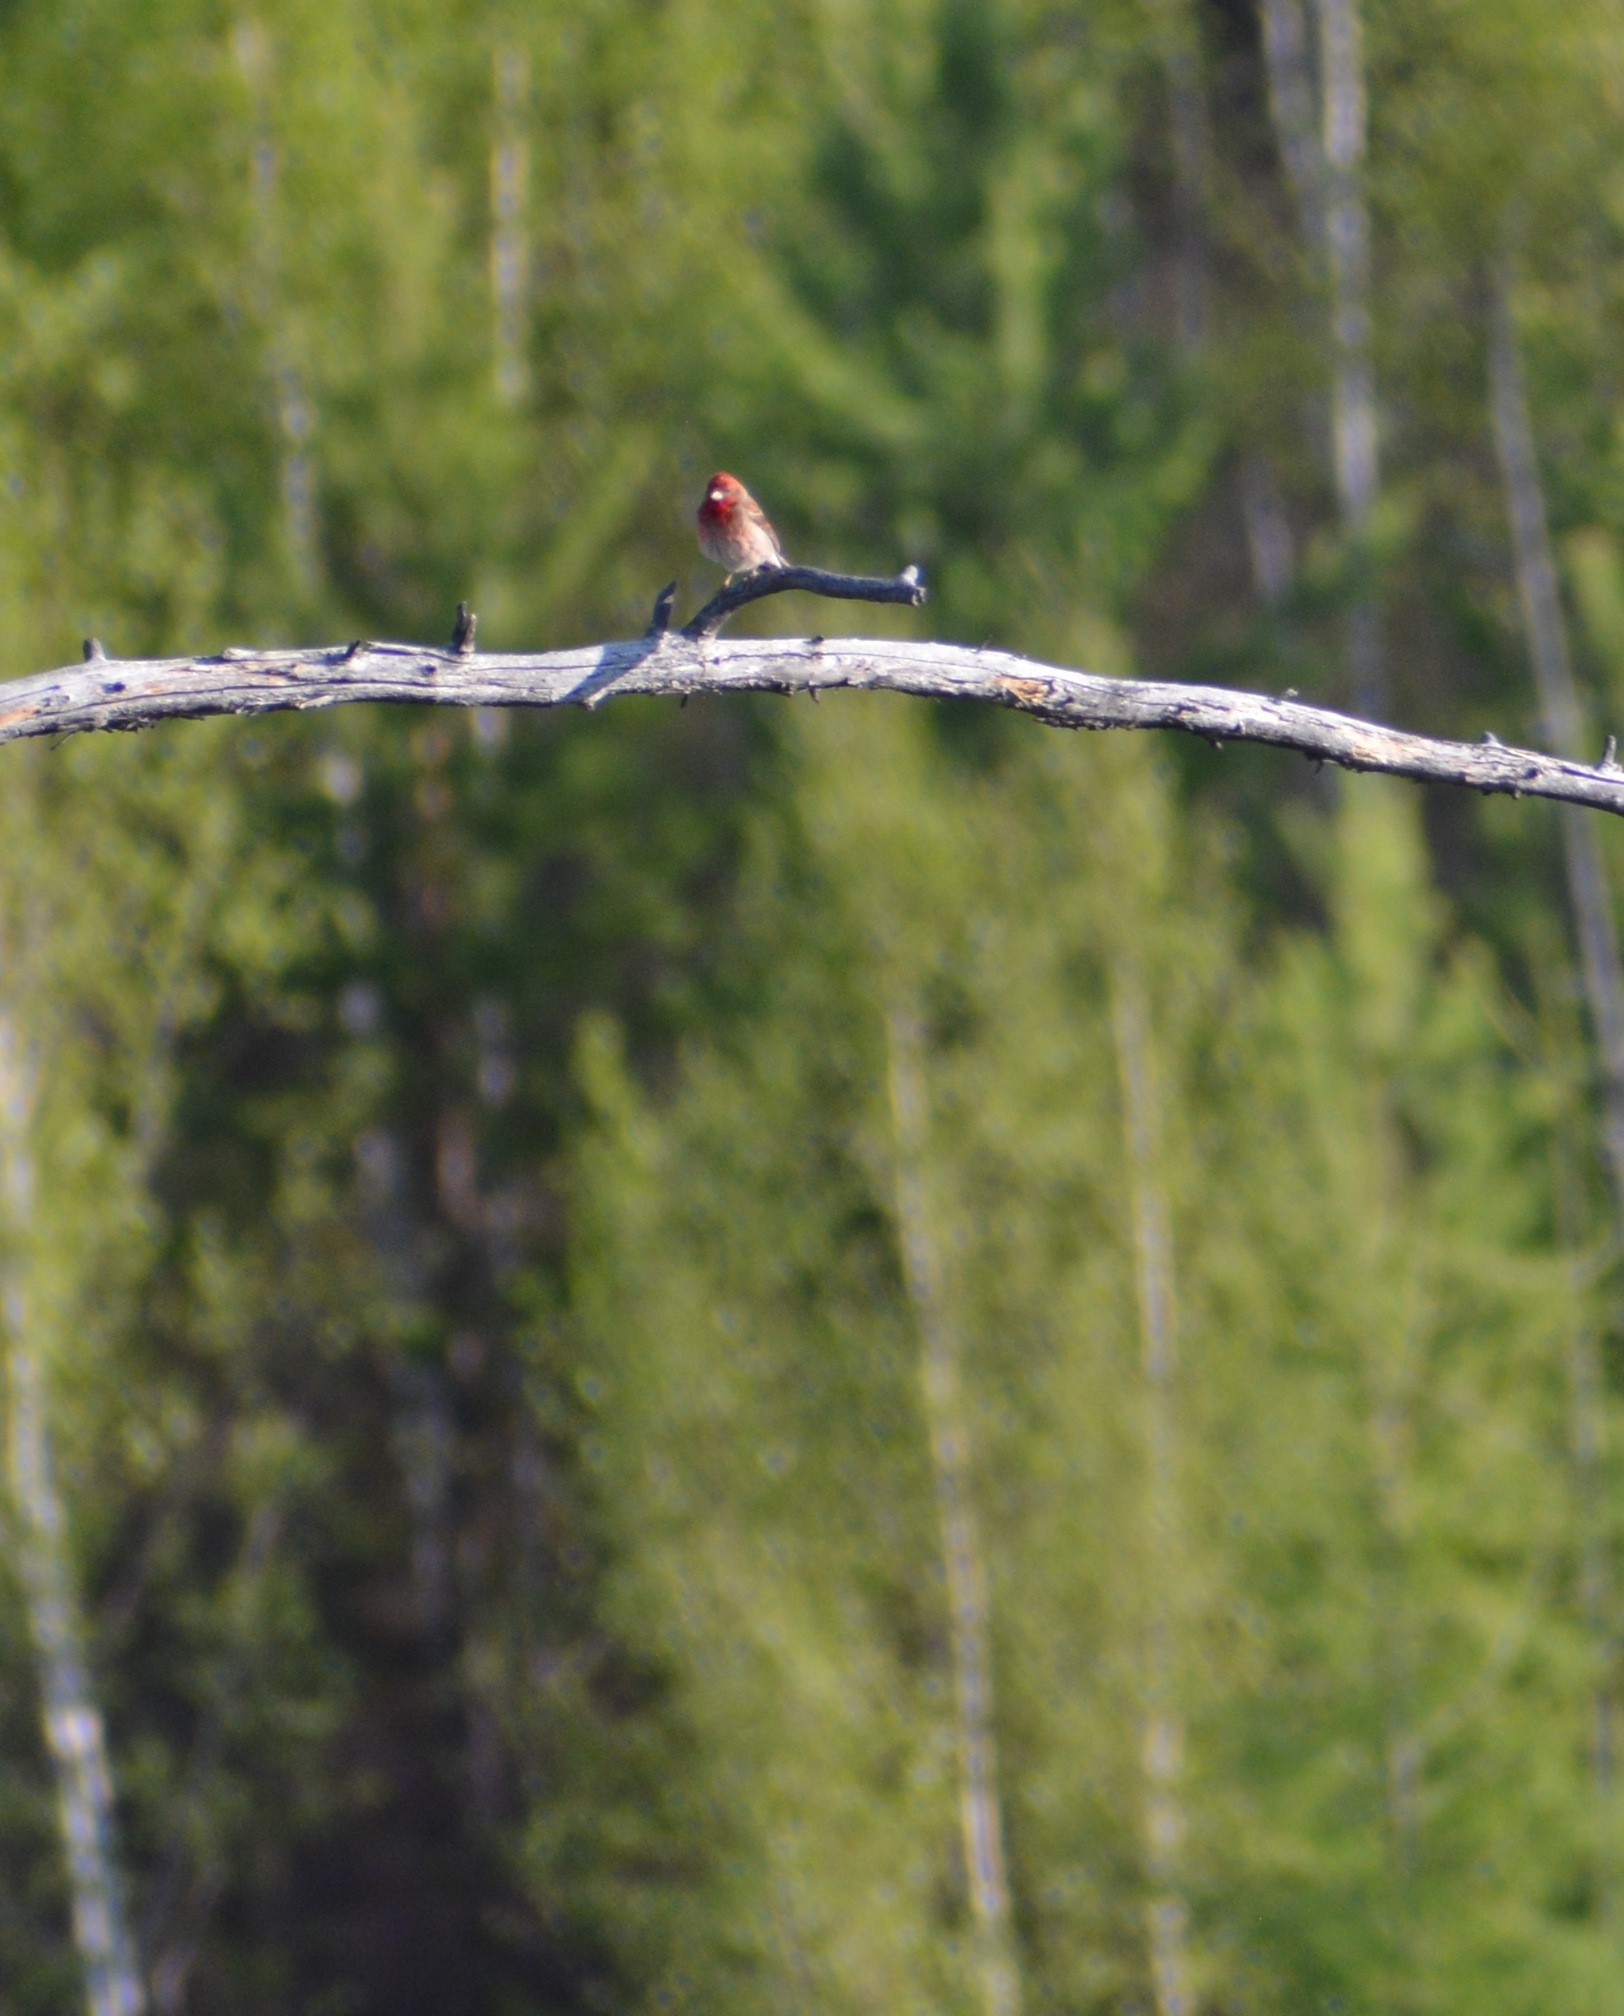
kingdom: Animalia
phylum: Chordata
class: Aves
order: Passeriformes
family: Fringillidae
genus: Carpodacus
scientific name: Carpodacus erythrinus
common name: Common rosefinch
